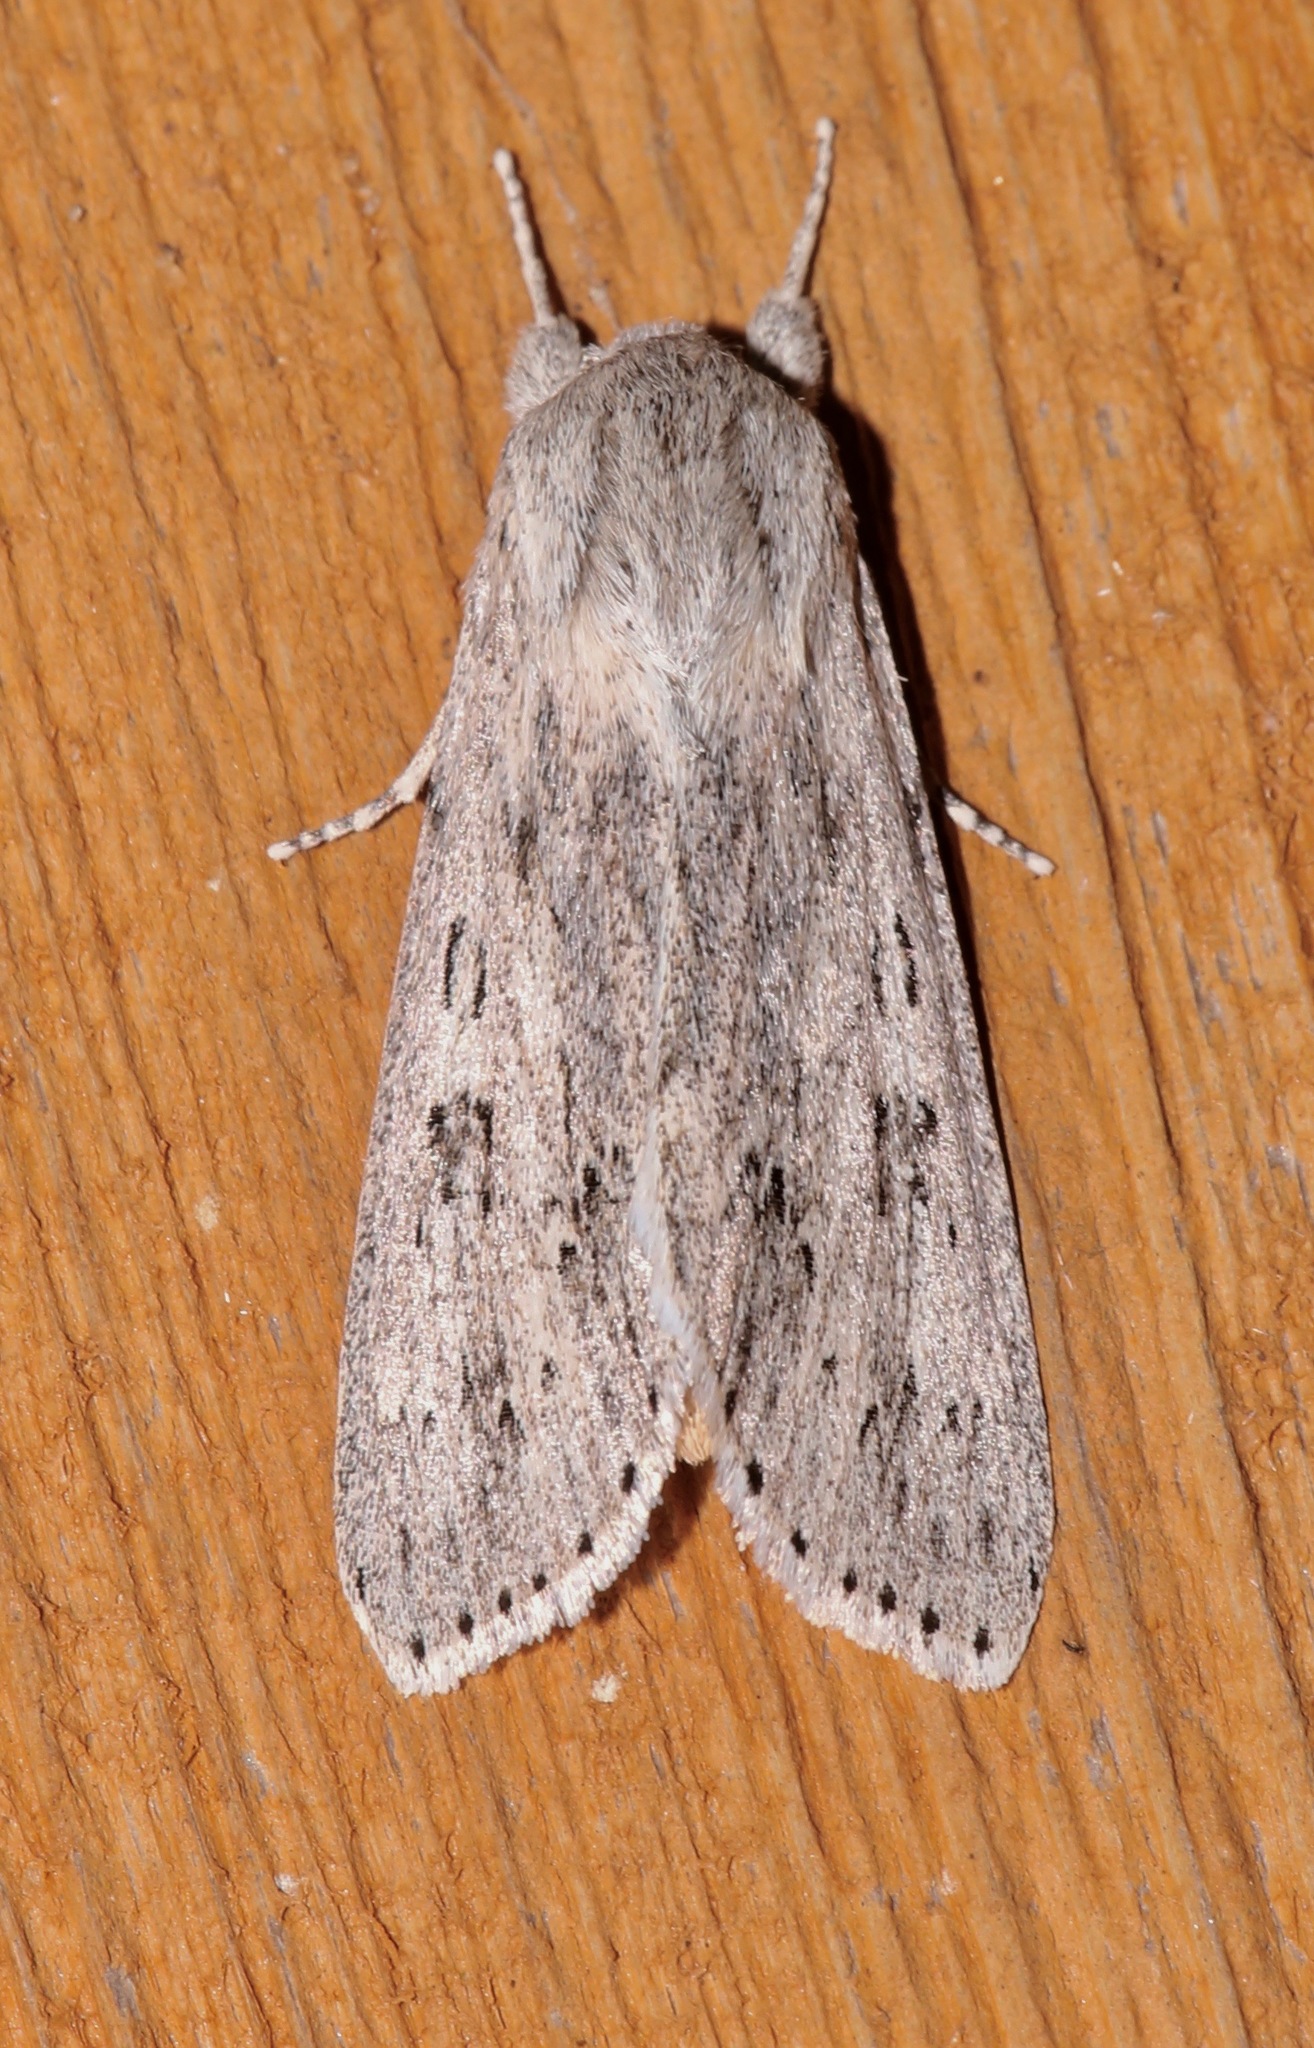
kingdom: Animalia
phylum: Arthropoda
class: Insecta
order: Lepidoptera
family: Noctuidae
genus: Acronicta
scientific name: Acronicta oblinita
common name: Smeared dagger
